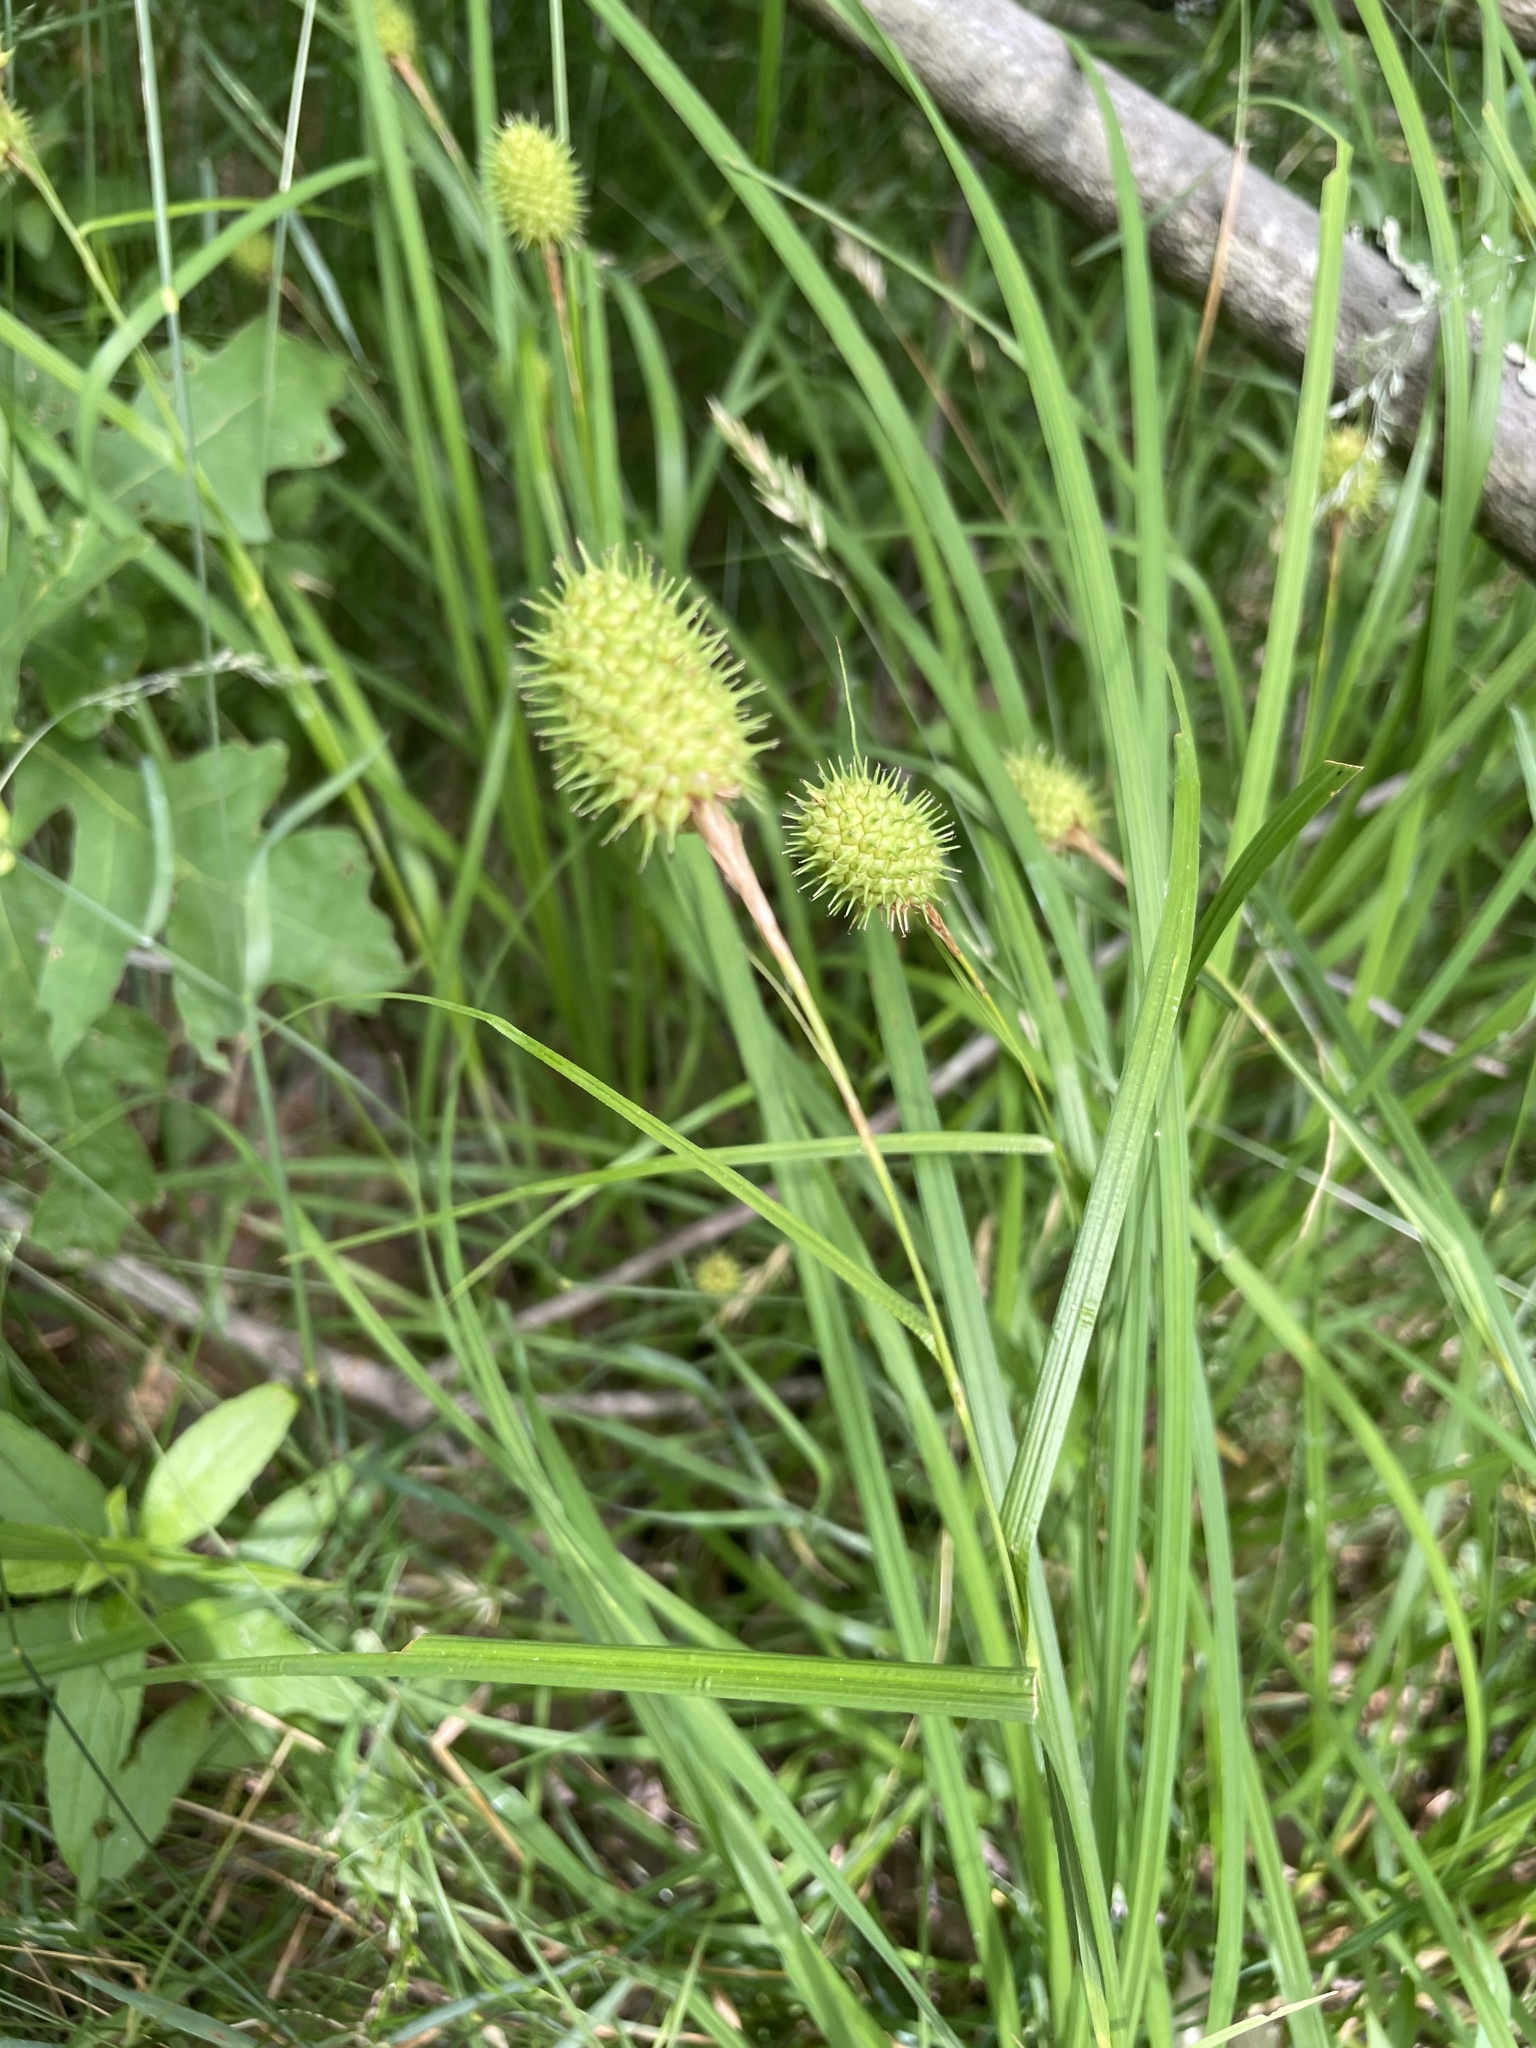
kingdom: Plantae
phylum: Tracheophyta
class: Liliopsida
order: Poales
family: Cyperaceae
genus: Carex
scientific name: Carex squarrosa
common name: Narrow-leaved cattail sedge
